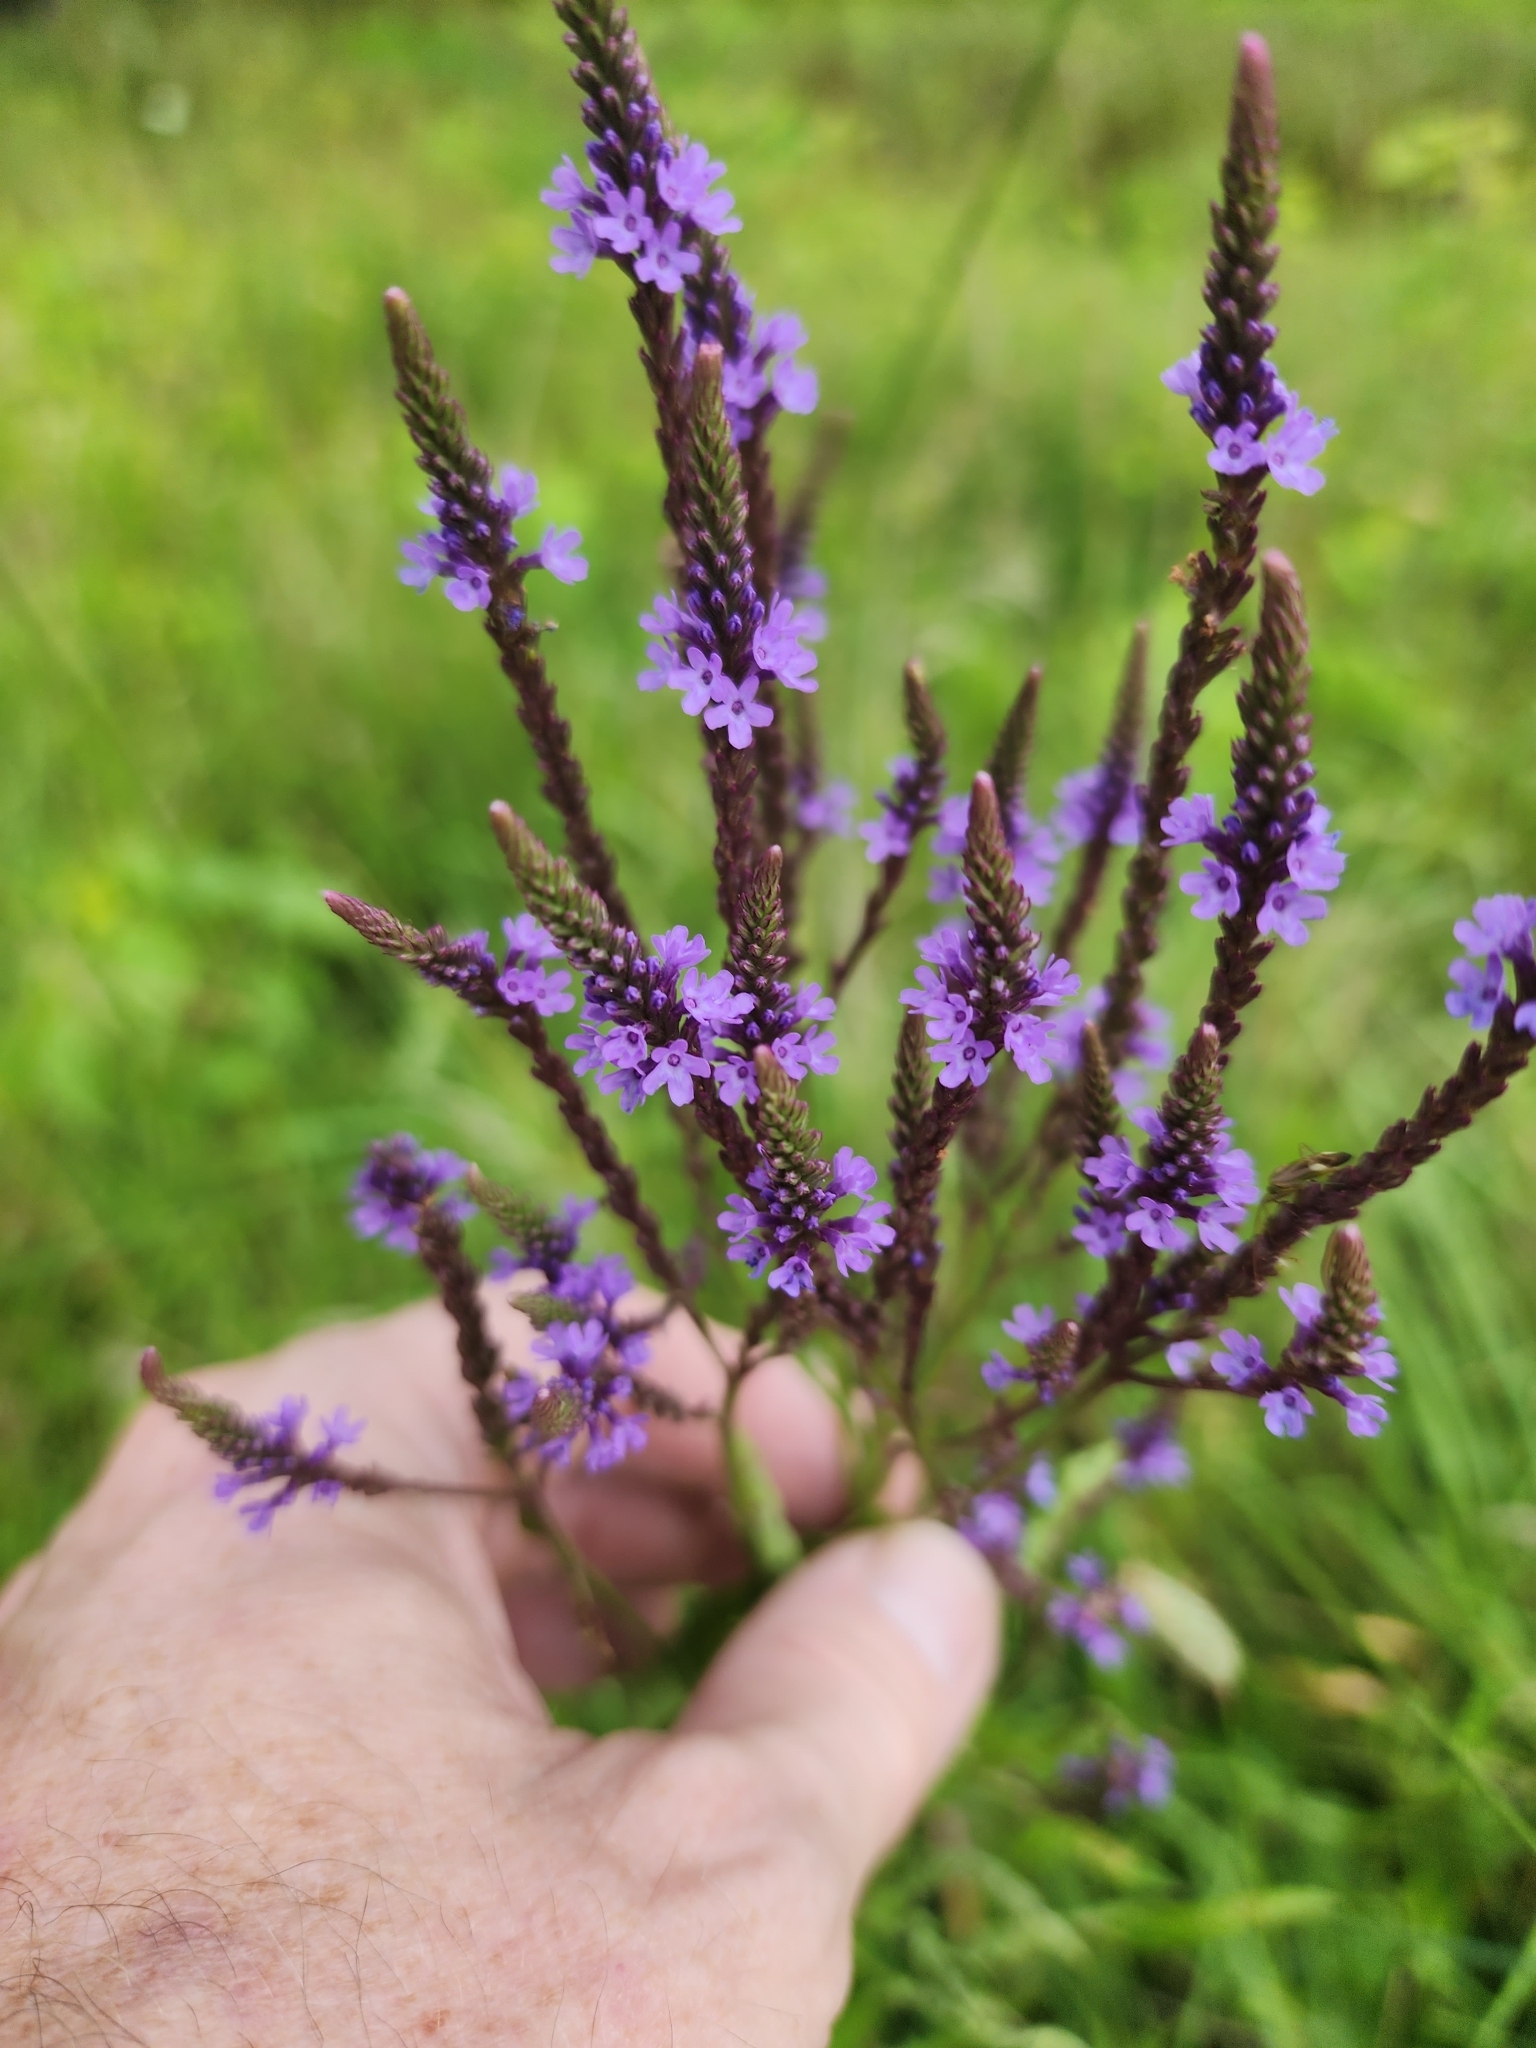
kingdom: Plantae
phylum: Tracheophyta
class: Magnoliopsida
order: Lamiales
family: Verbenaceae
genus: Verbena
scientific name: Verbena hastata
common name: American blue vervain
